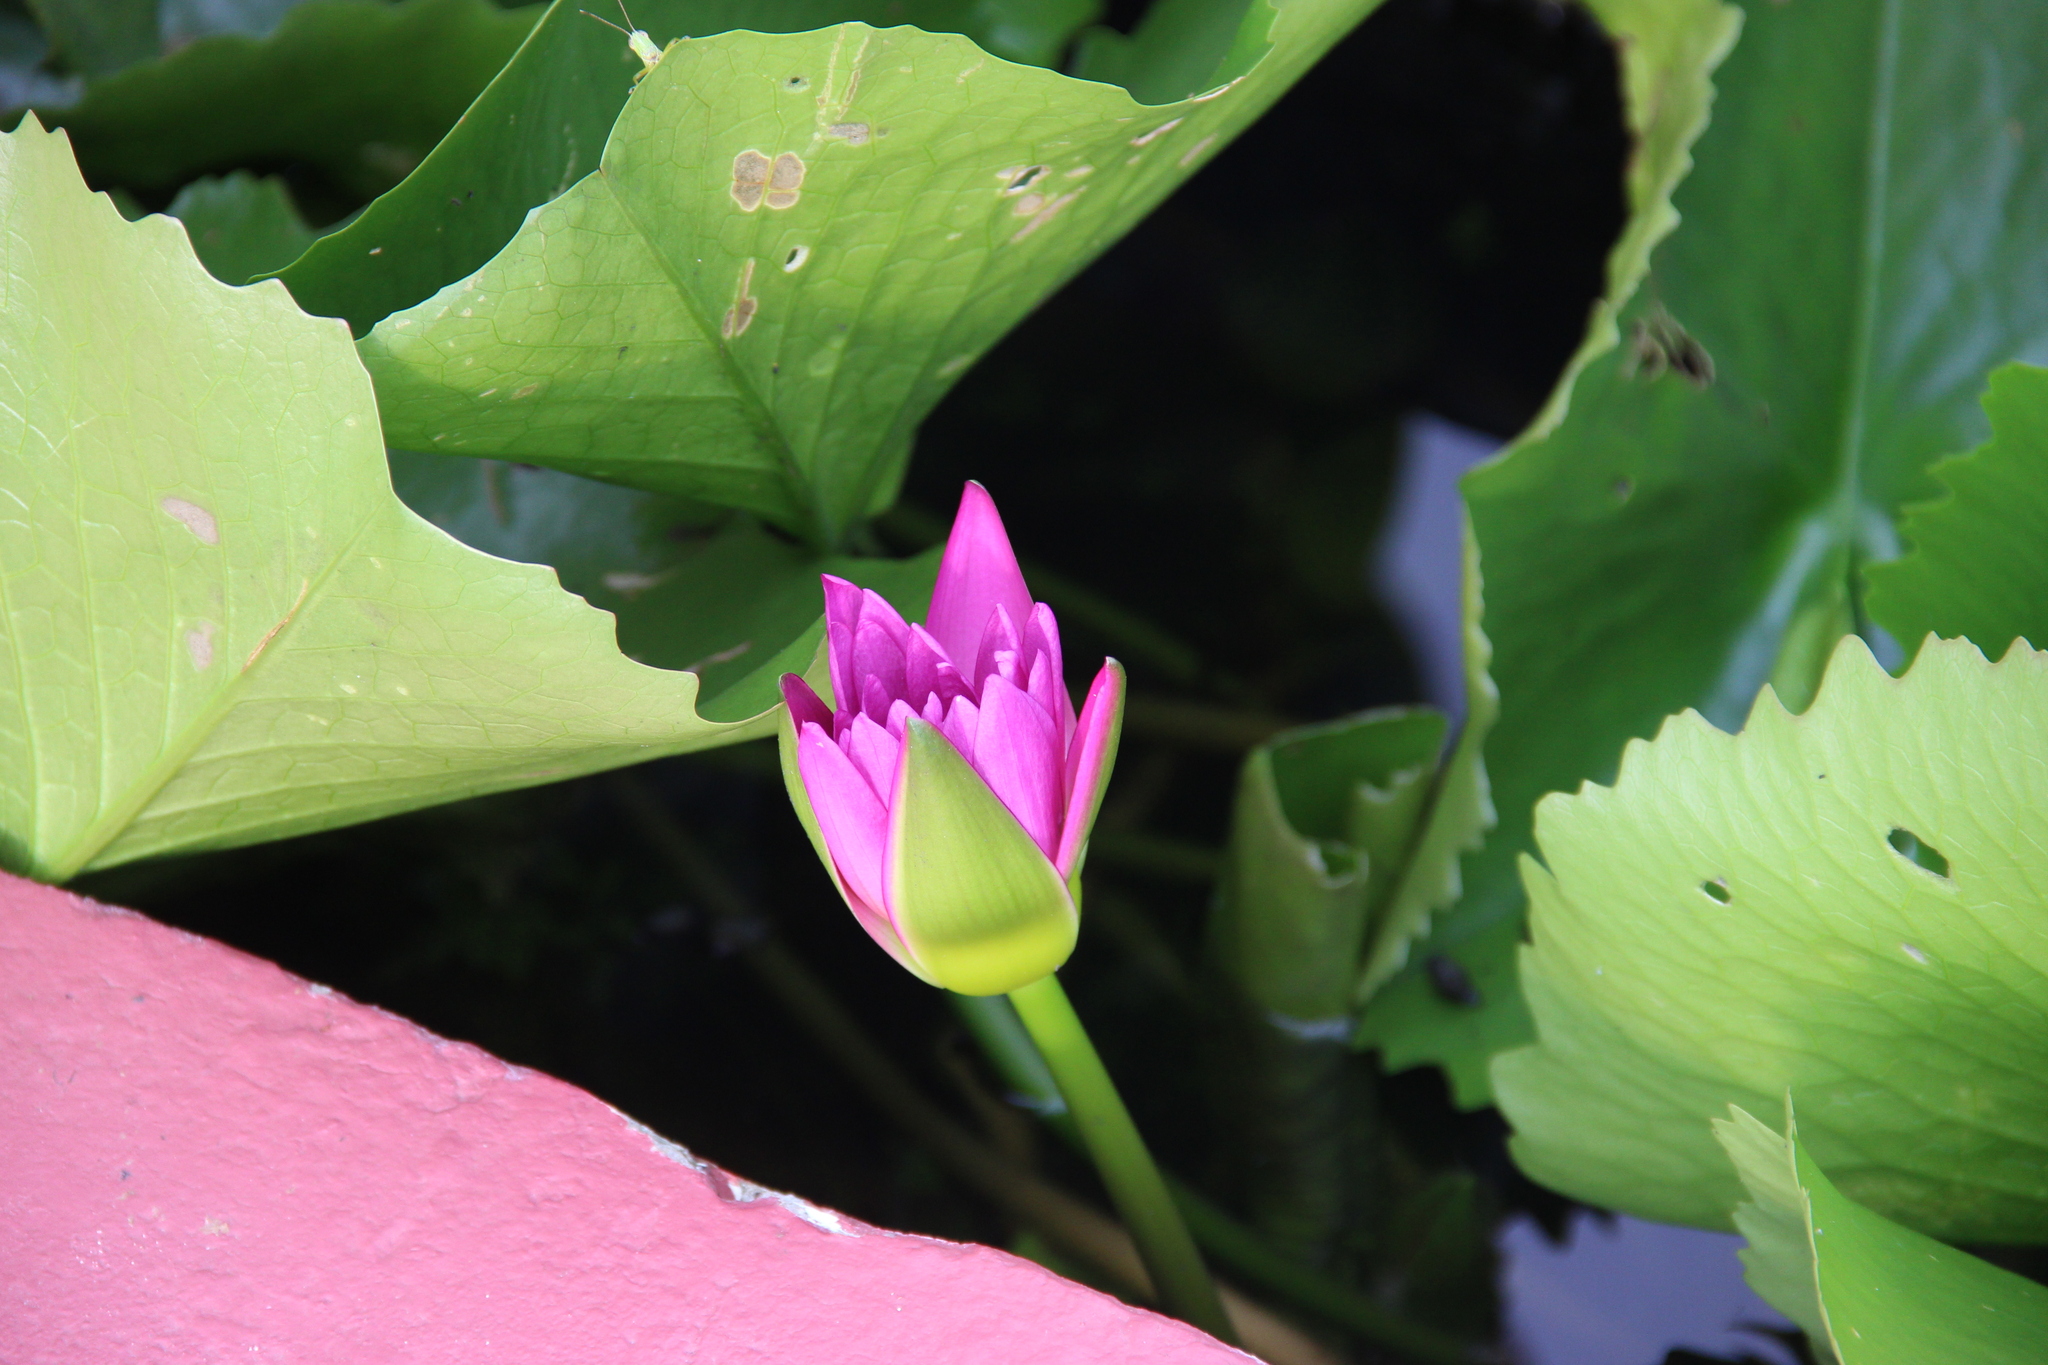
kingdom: Plantae
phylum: Tracheophyta
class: Magnoliopsida
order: Nymphaeales
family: Nymphaeaceae
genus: Nymphaea
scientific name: Nymphaea nouchali
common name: Blue lotus
